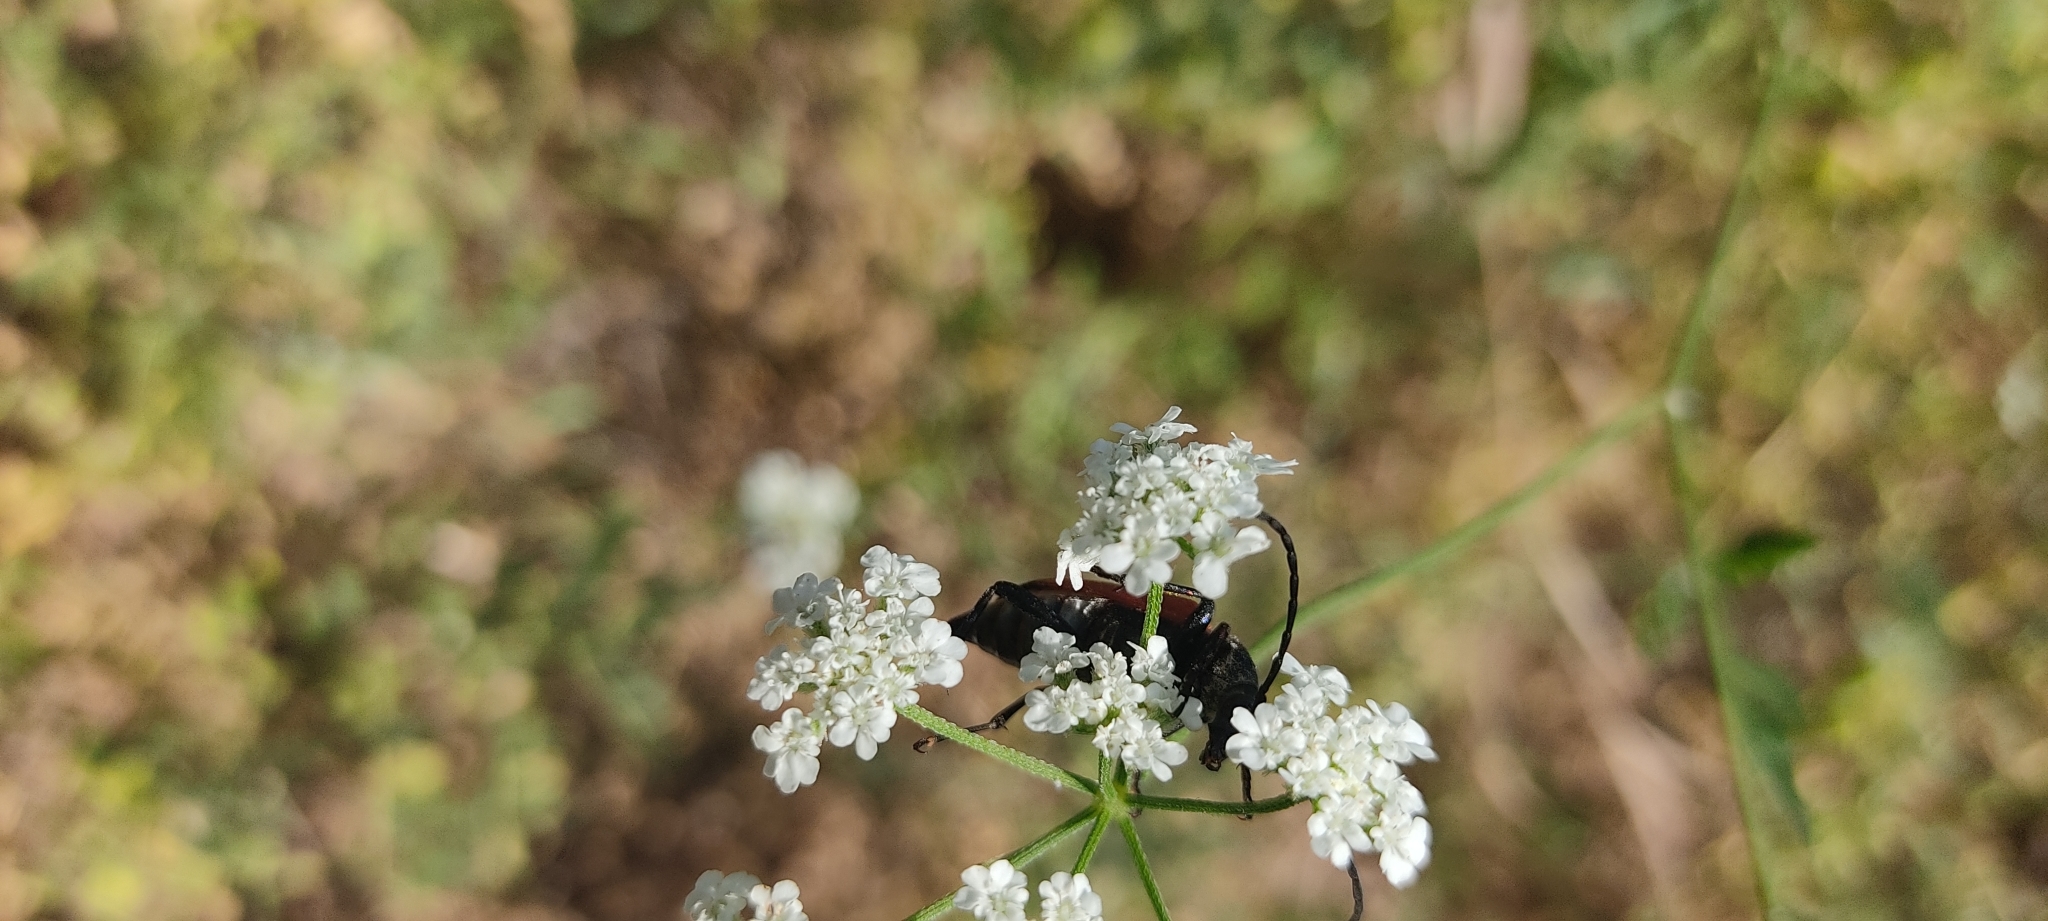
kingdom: Animalia
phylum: Arthropoda
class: Insecta
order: Coleoptera
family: Cerambycidae
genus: Stictoleptura
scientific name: Stictoleptura cordigera
